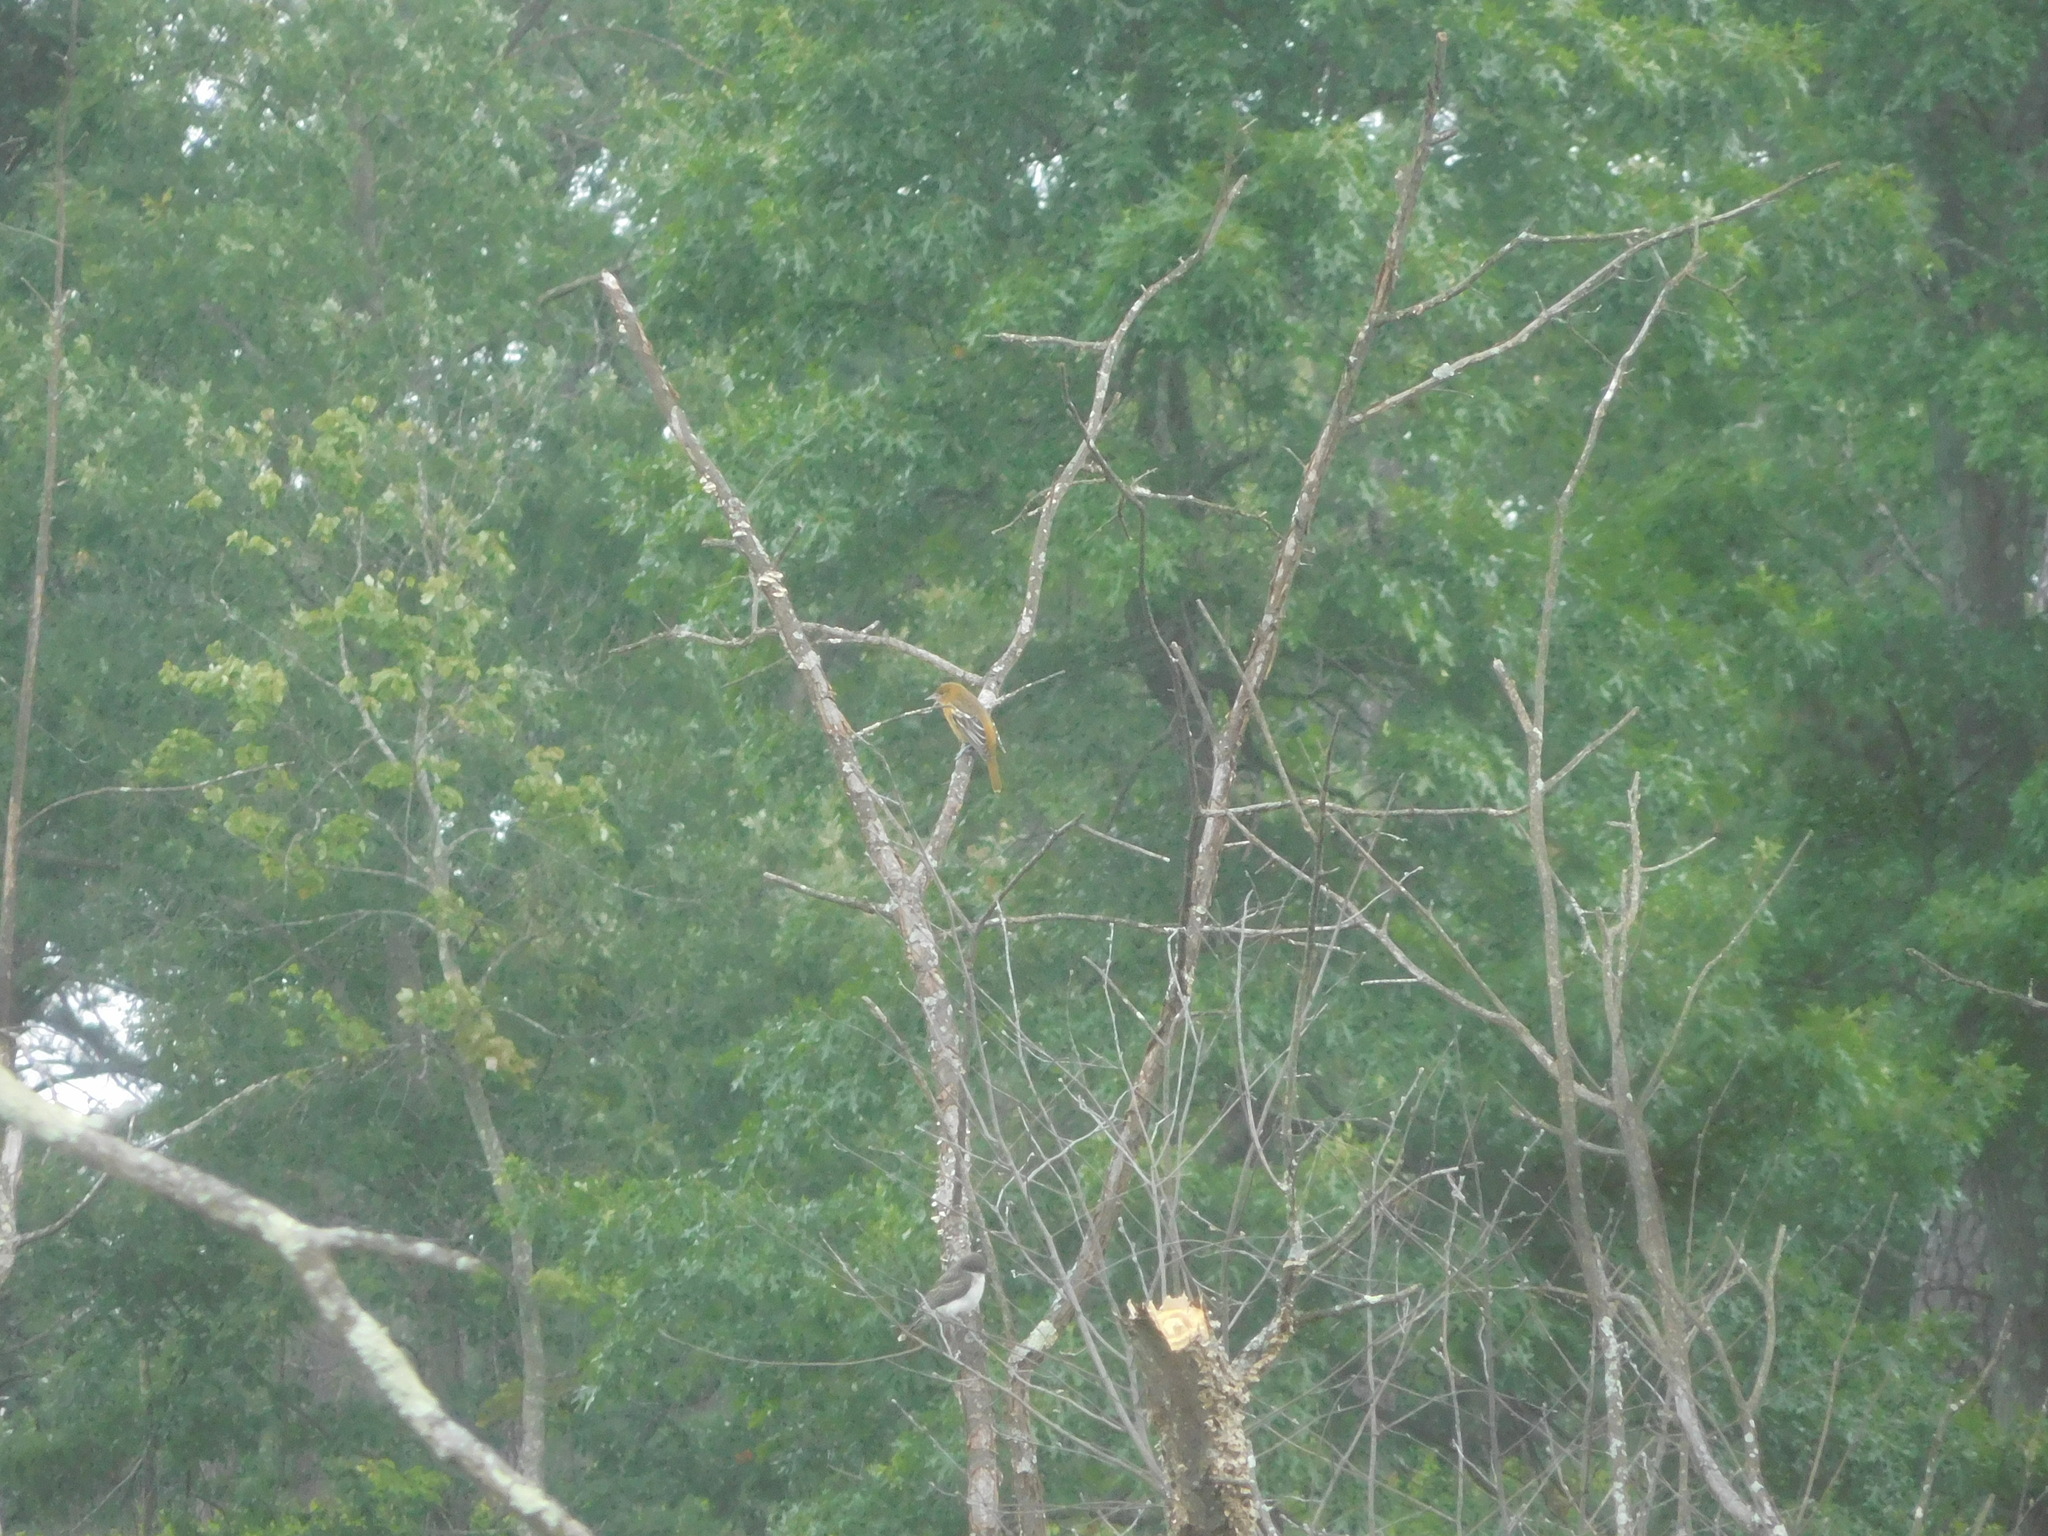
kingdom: Animalia
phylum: Chordata
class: Aves
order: Passeriformes
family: Icteridae
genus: Icterus
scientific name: Icterus galbula
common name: Baltimore oriole
